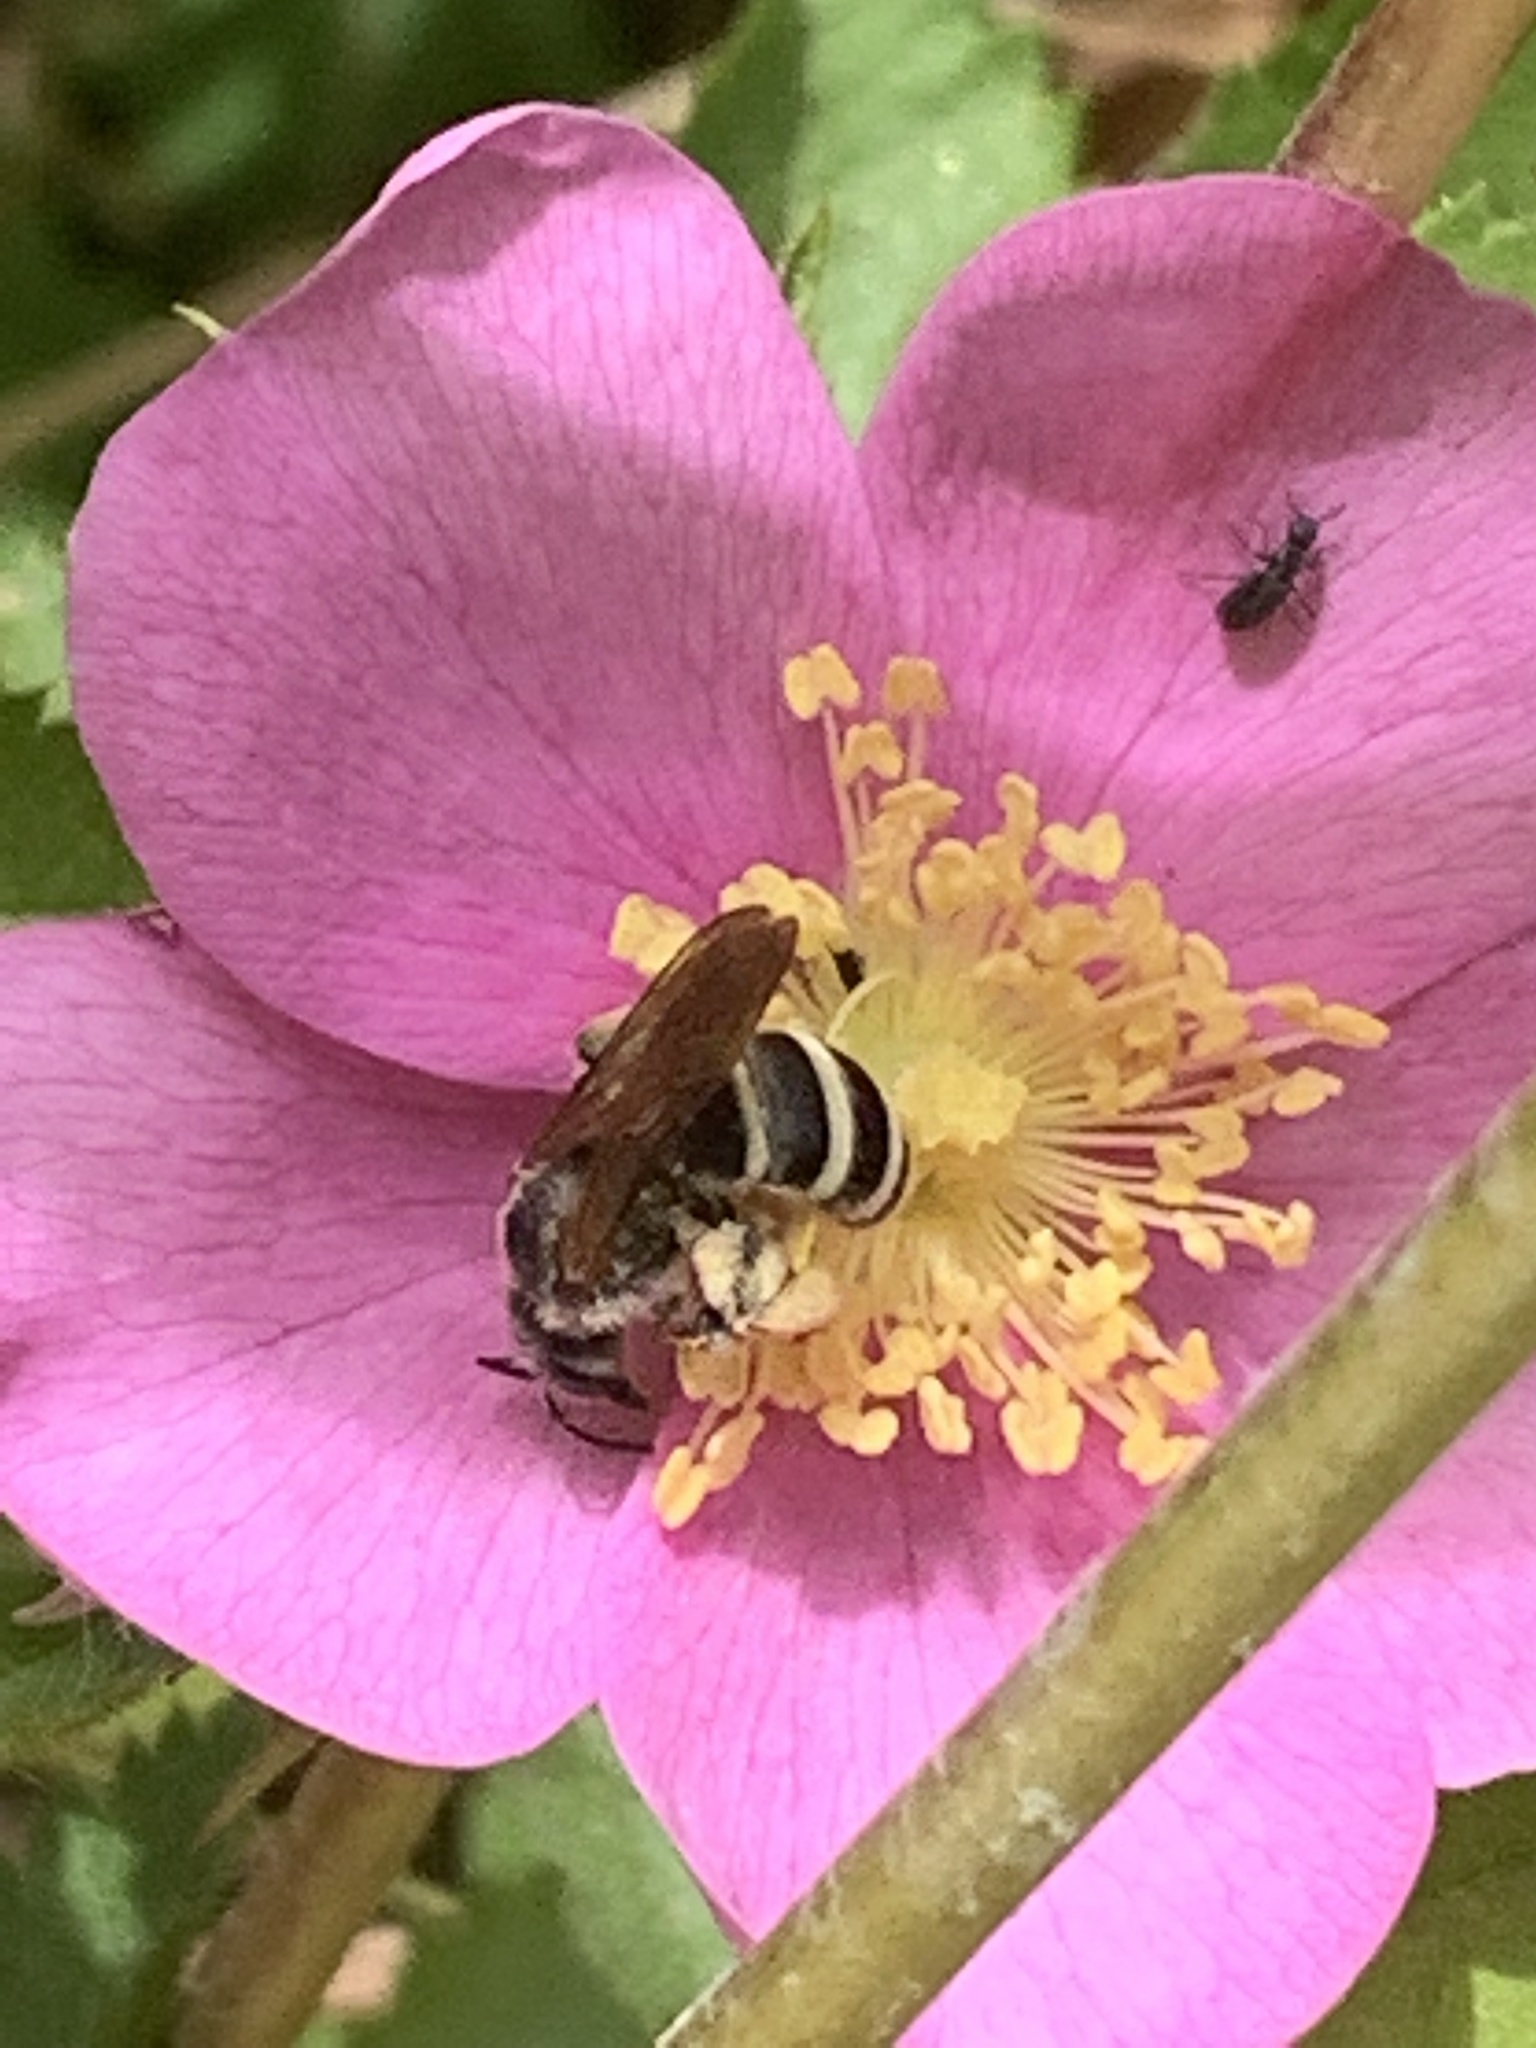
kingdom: Animalia
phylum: Arthropoda
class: Insecta
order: Hymenoptera
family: Halictidae
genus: Halictus
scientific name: Halictus farinosus
